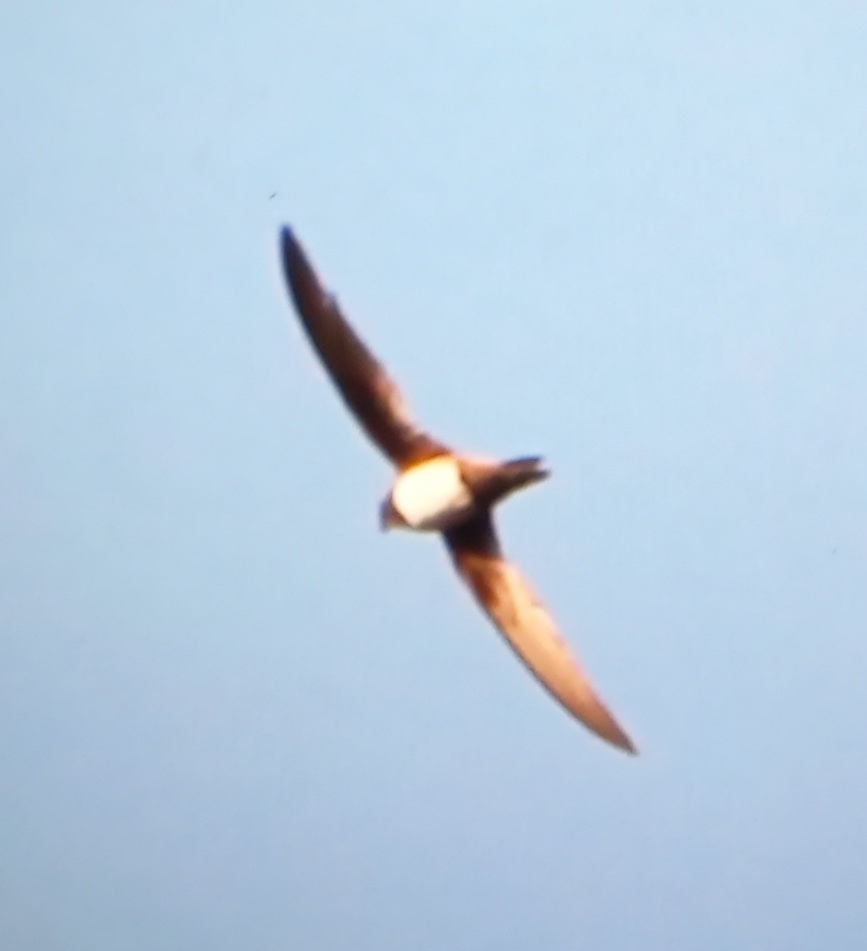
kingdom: Animalia
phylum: Chordata
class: Aves
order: Apodiformes
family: Apodidae
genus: Tachymarptis
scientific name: Tachymarptis melba
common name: Alpine swift
